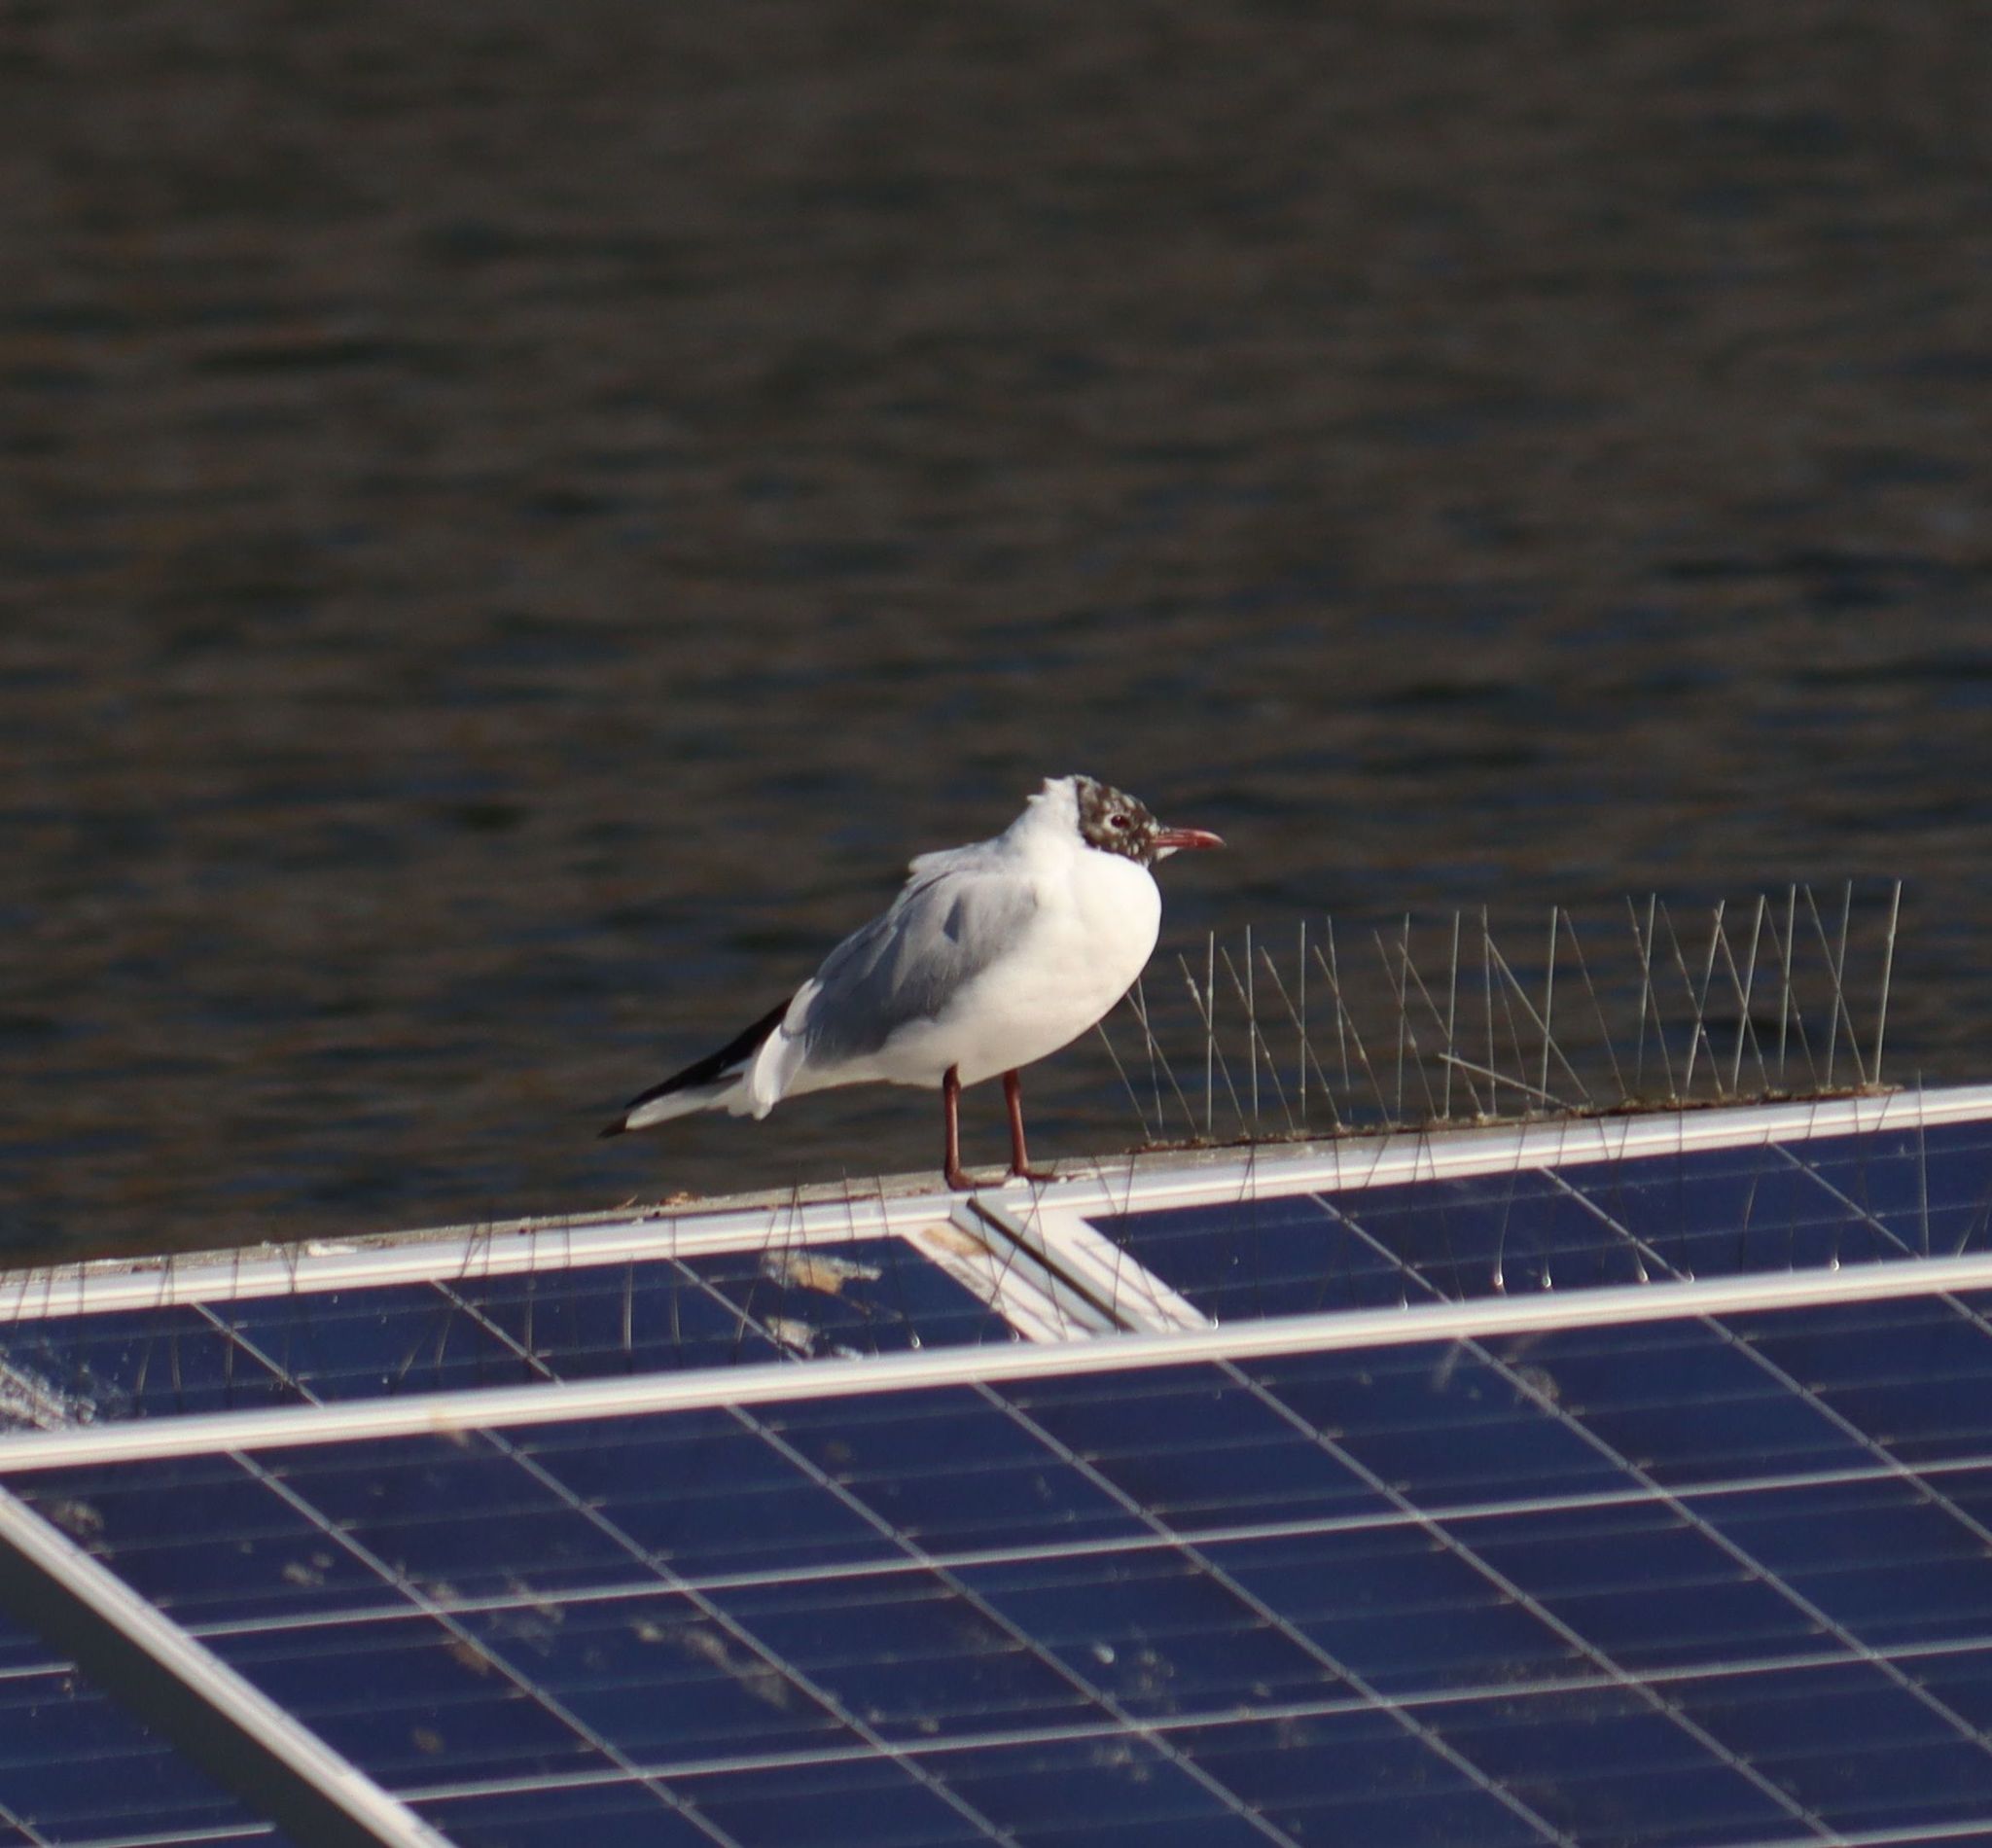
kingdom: Animalia
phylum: Chordata
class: Aves
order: Charadriiformes
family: Laridae
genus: Chroicocephalus
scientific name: Chroicocephalus ridibundus
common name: Black-headed gull
